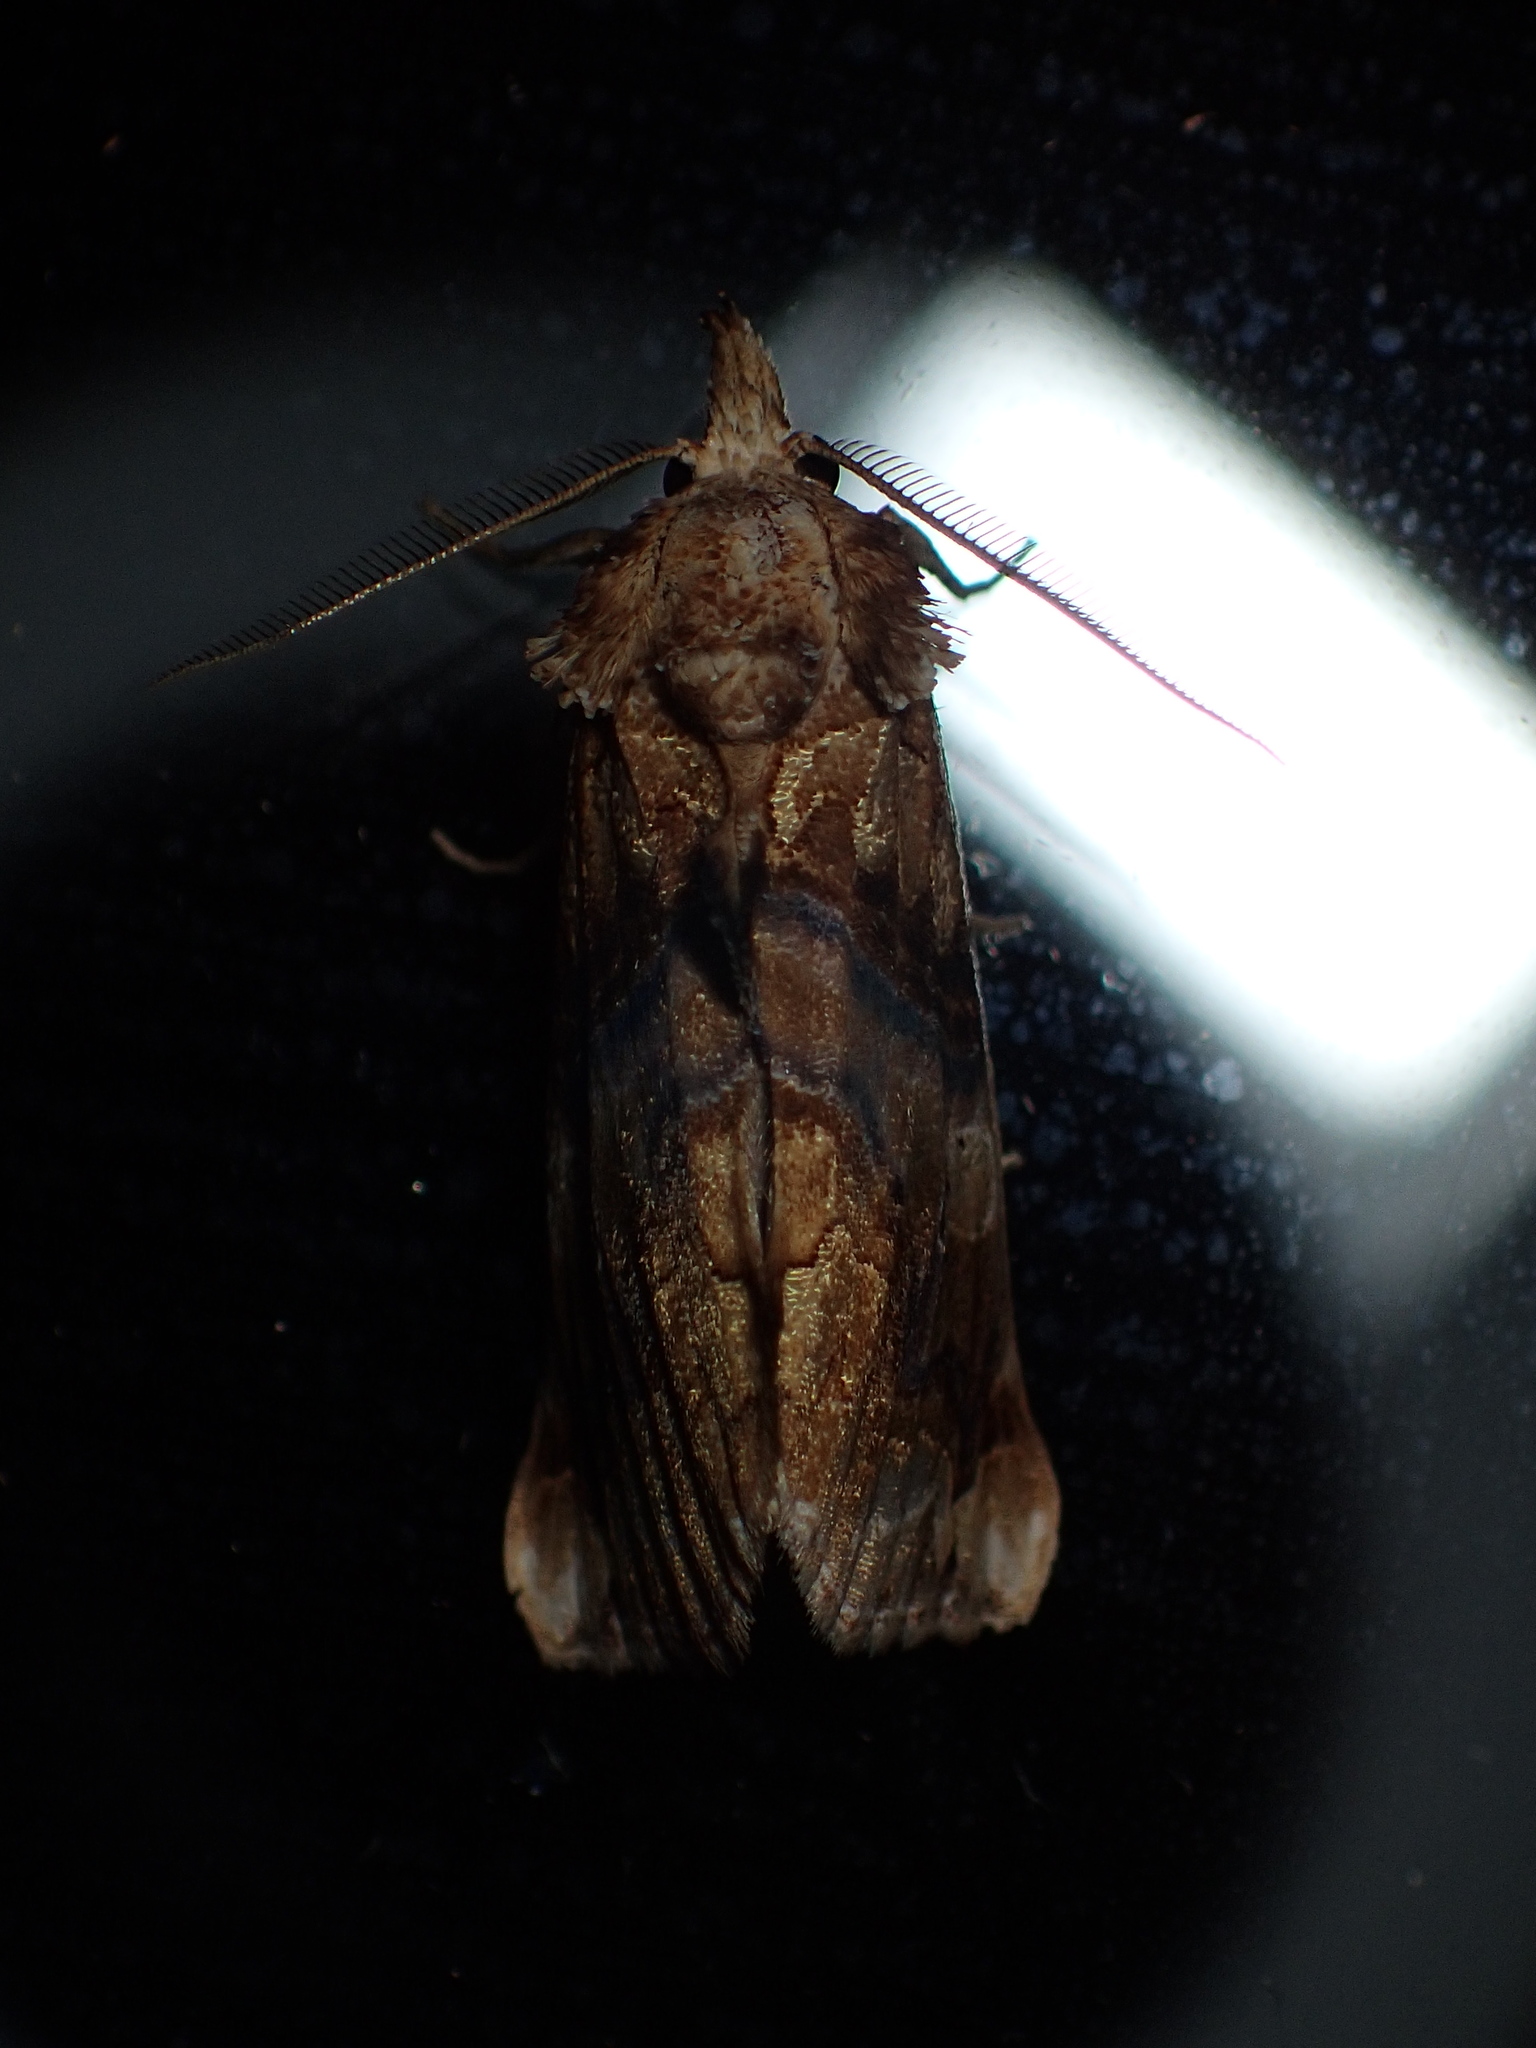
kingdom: Animalia
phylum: Arthropoda
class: Insecta
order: Lepidoptera
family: Erebidae
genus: Plusiodonta
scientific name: Plusiodonta compressipalpis
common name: Moonseed moth
